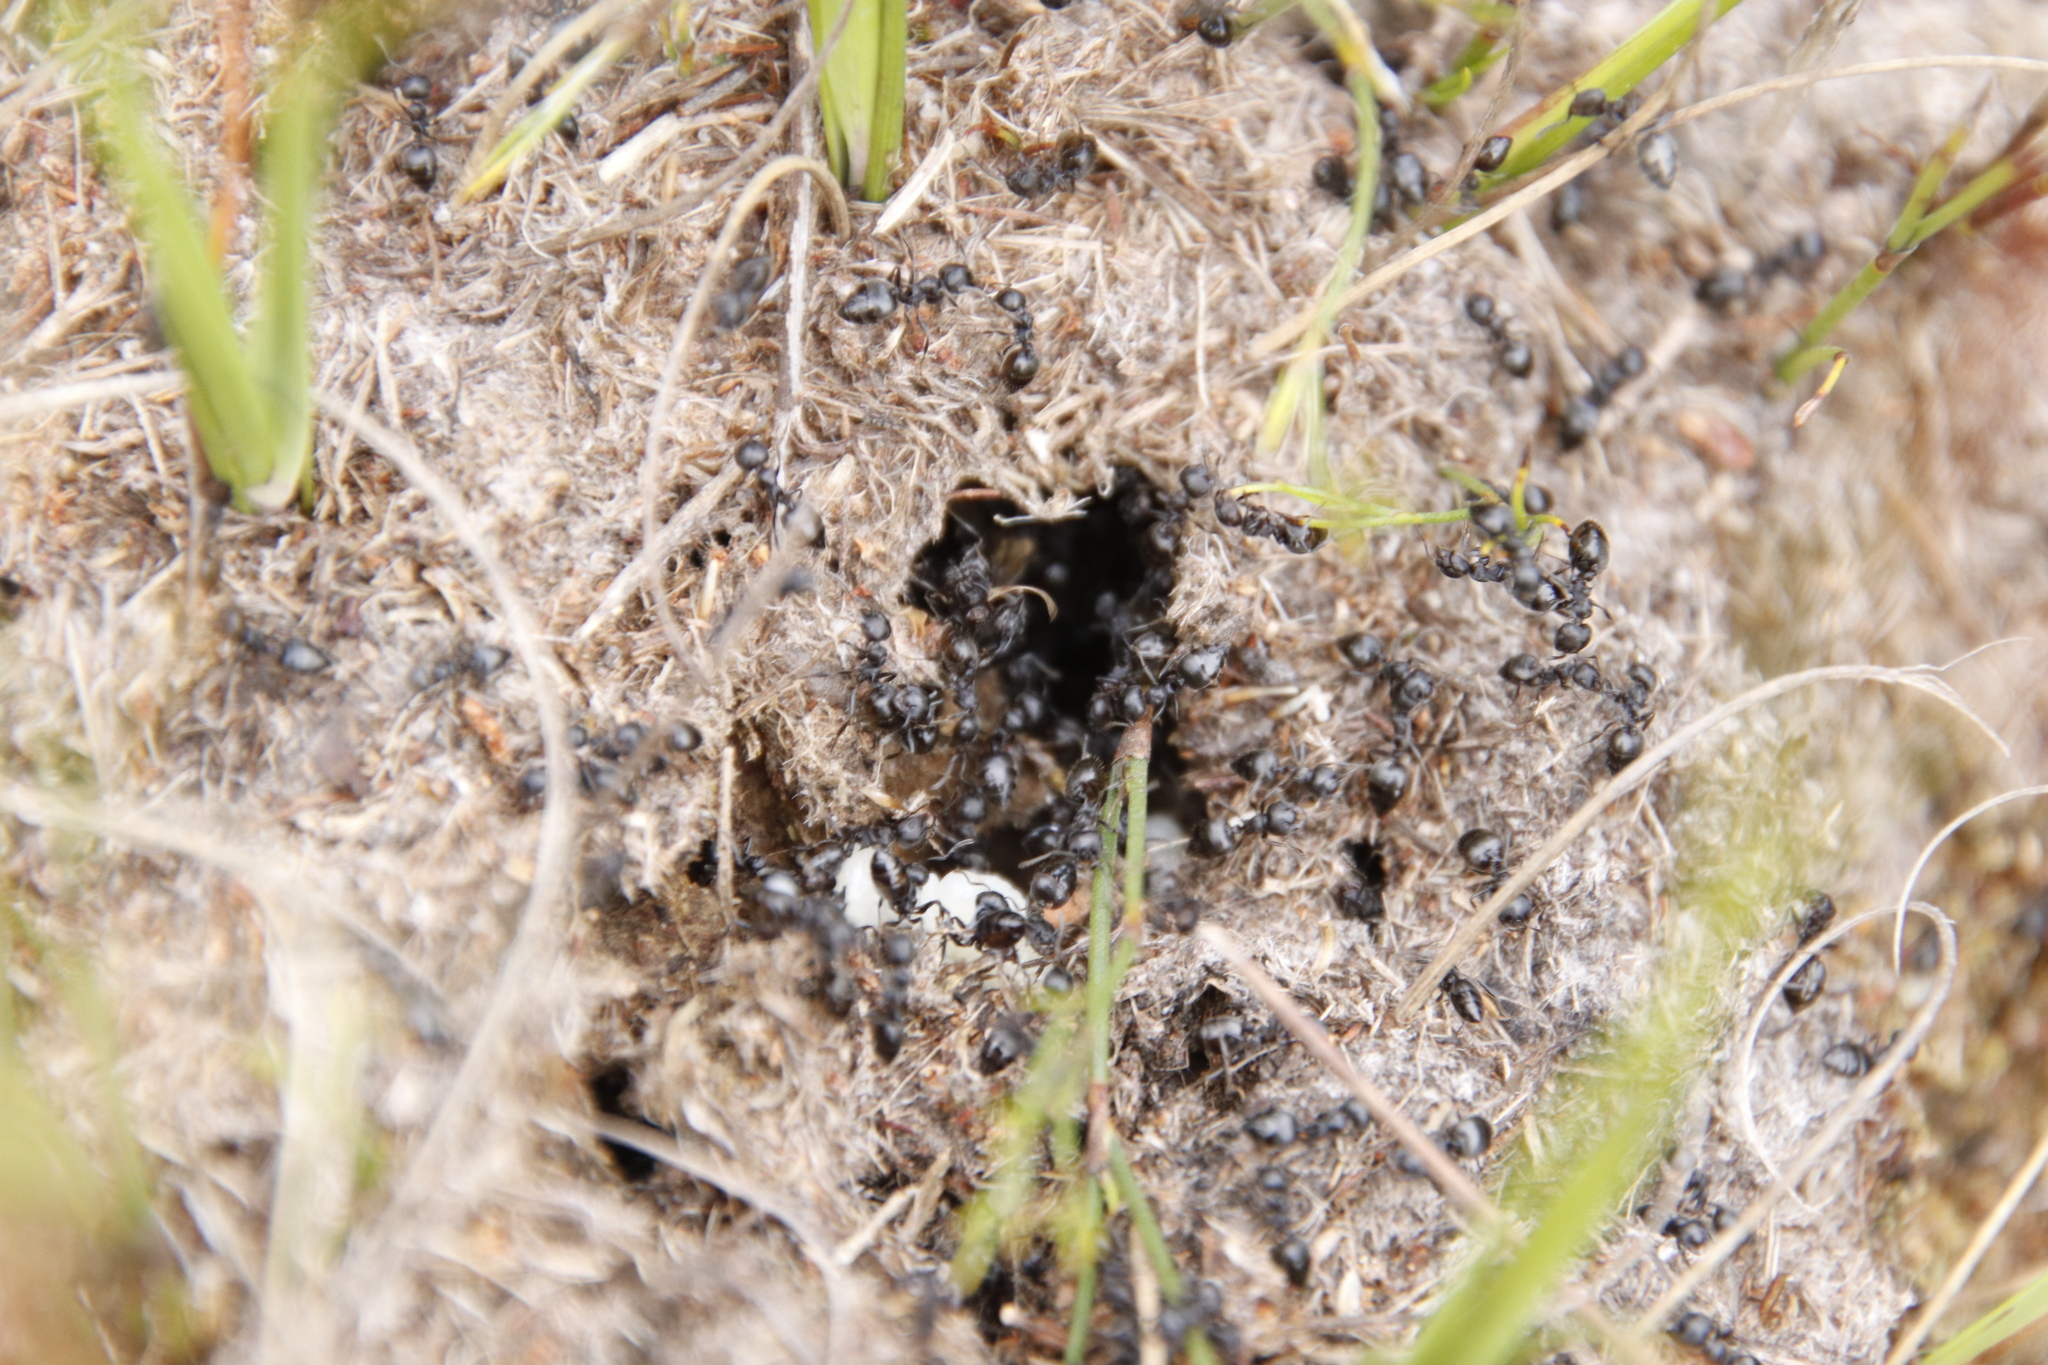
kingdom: Animalia
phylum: Arthropoda
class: Insecta
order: Hymenoptera
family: Formicidae
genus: Crematogaster
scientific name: Crematogaster peringueyi
